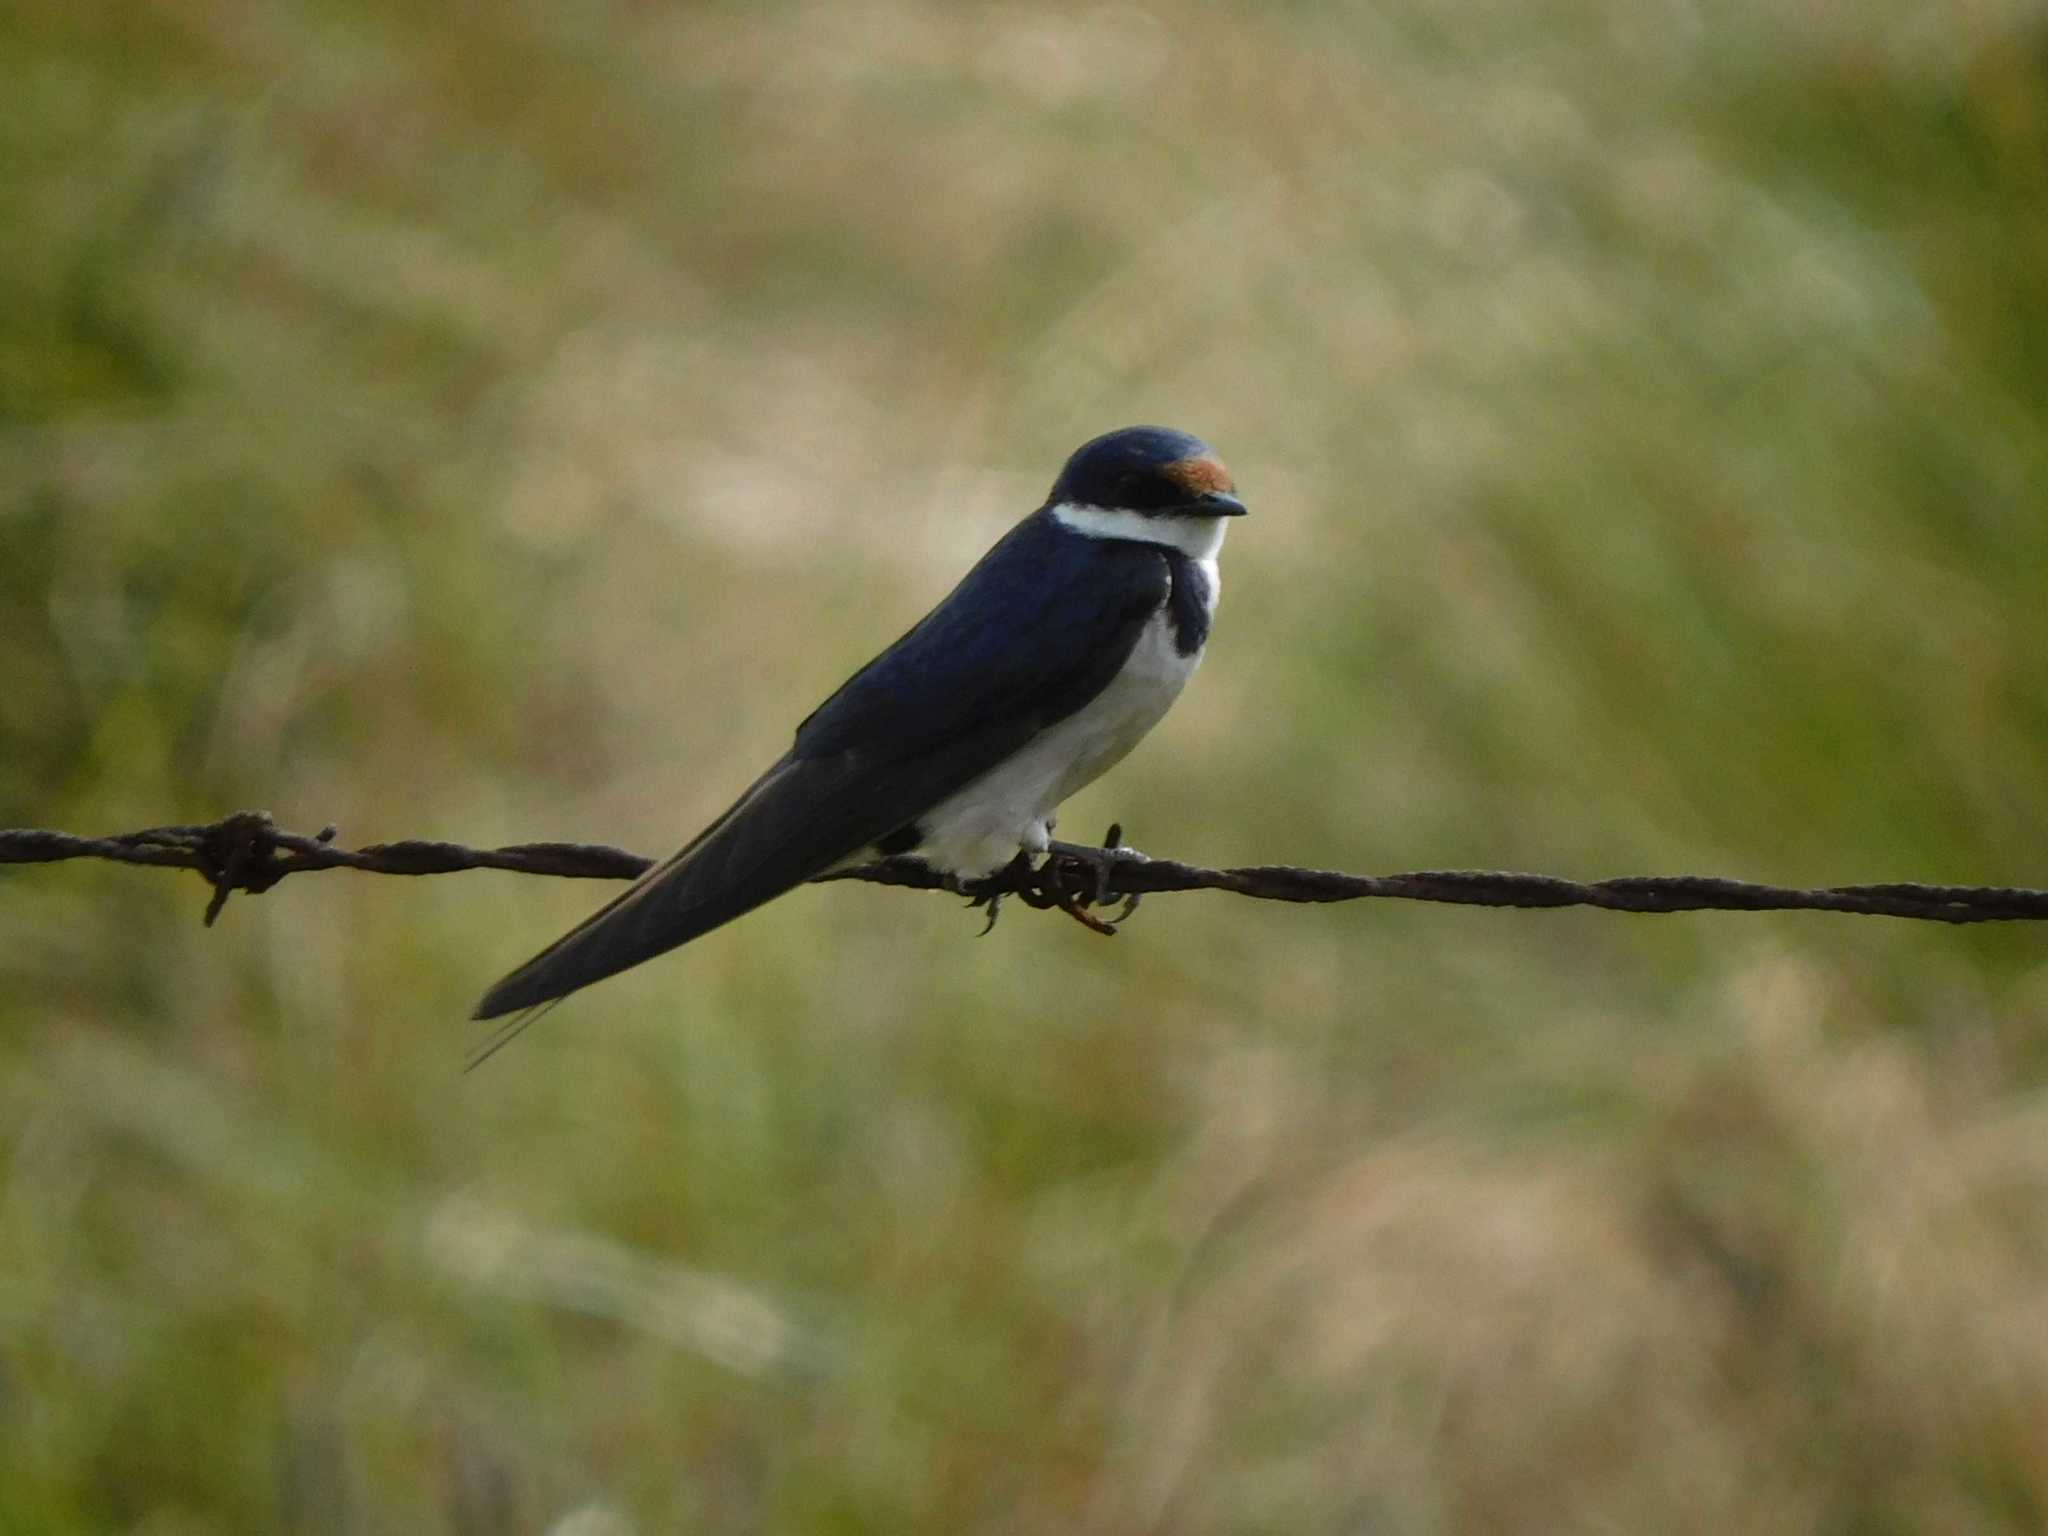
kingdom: Animalia
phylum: Chordata
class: Aves
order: Passeriformes
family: Hirundinidae
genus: Hirundo
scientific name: Hirundo albigularis
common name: White-throated swallow
